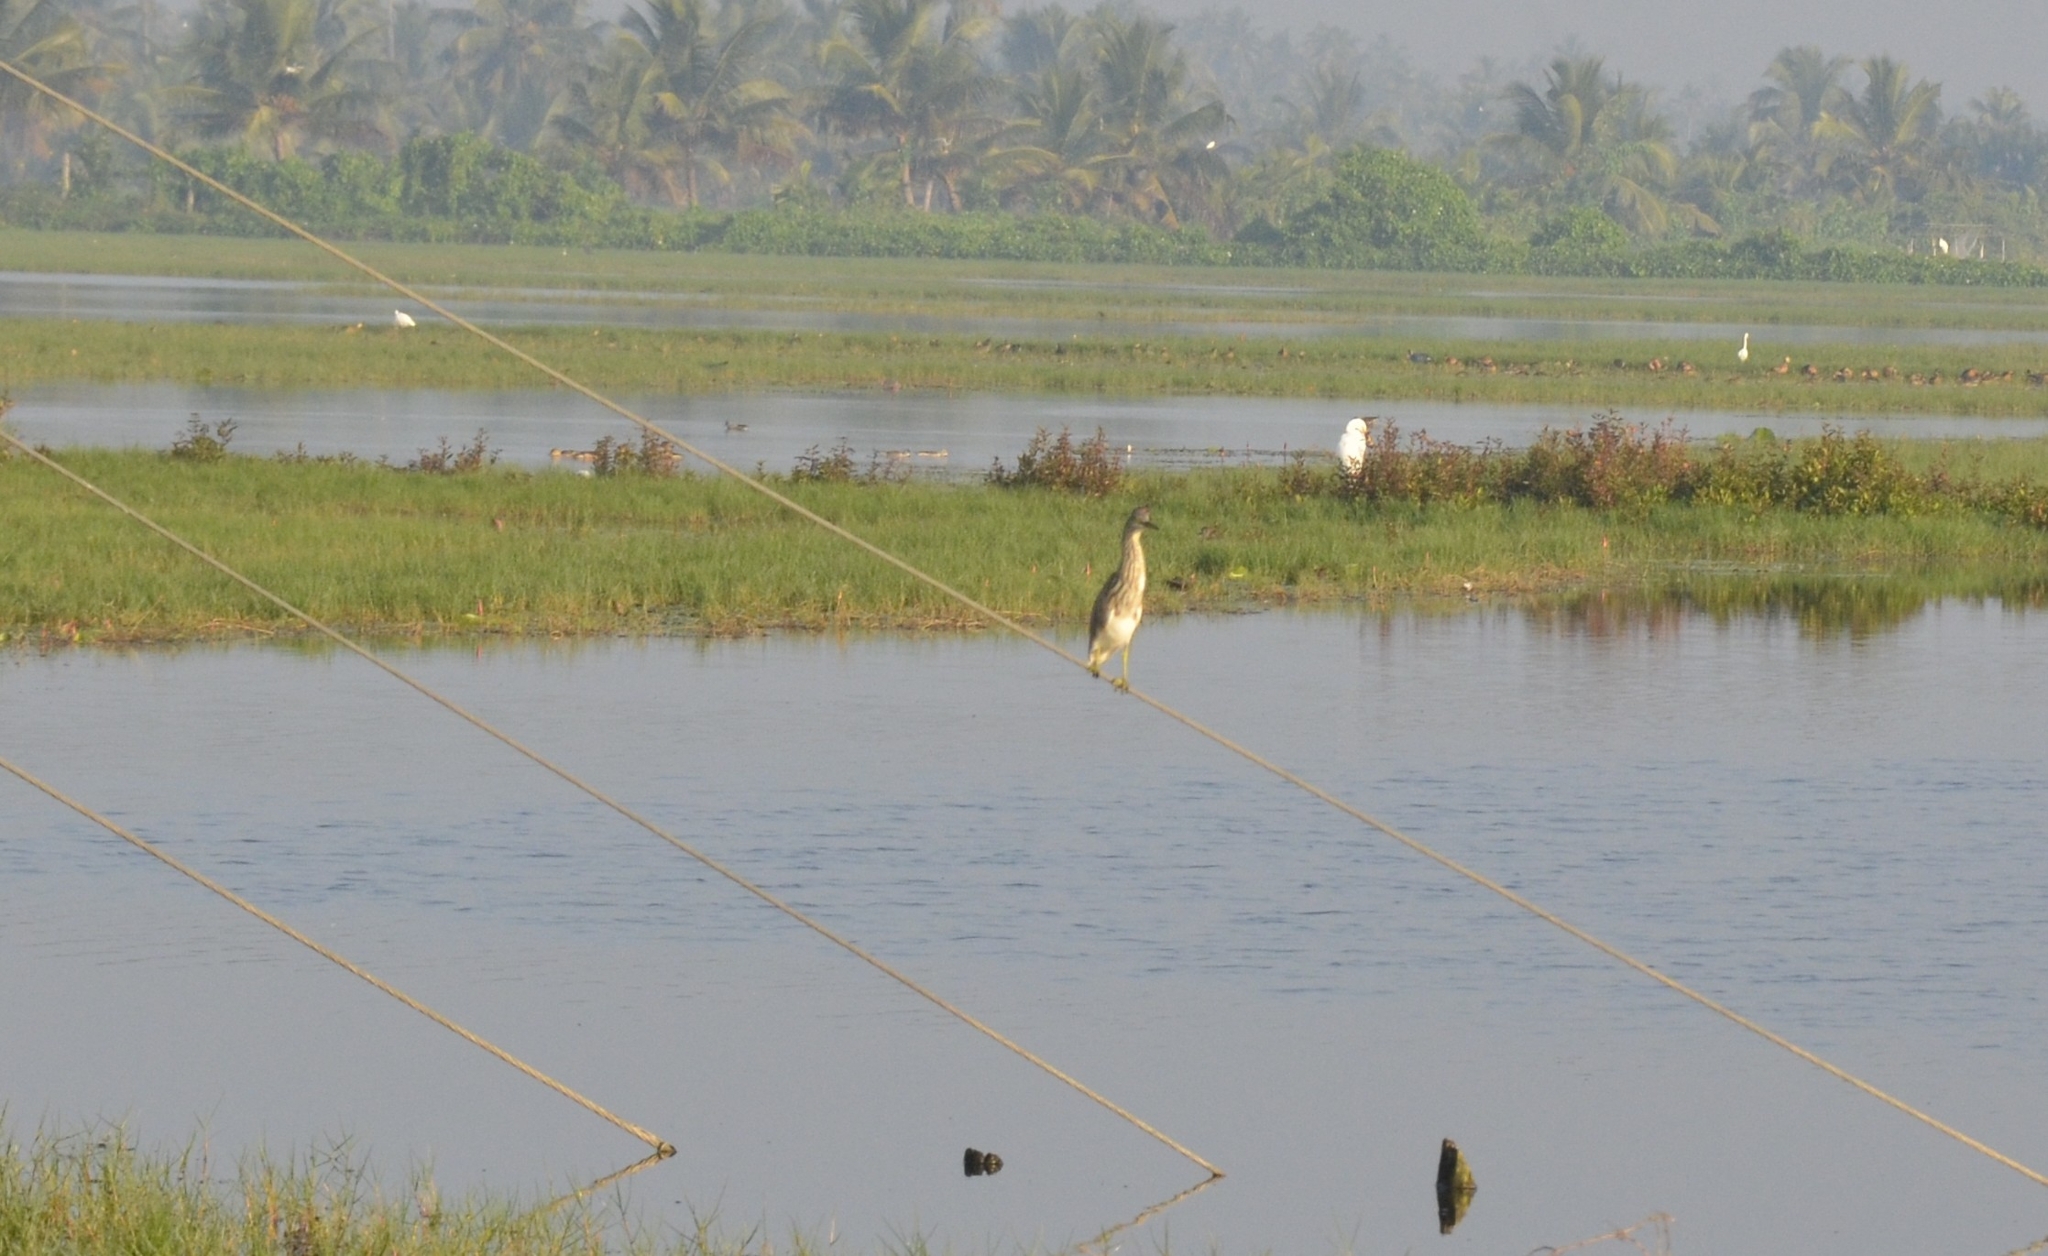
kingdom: Animalia
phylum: Chordata
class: Aves
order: Pelecaniformes
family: Ardeidae
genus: Ardeola
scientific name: Ardeola grayii
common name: Indian pond heron
